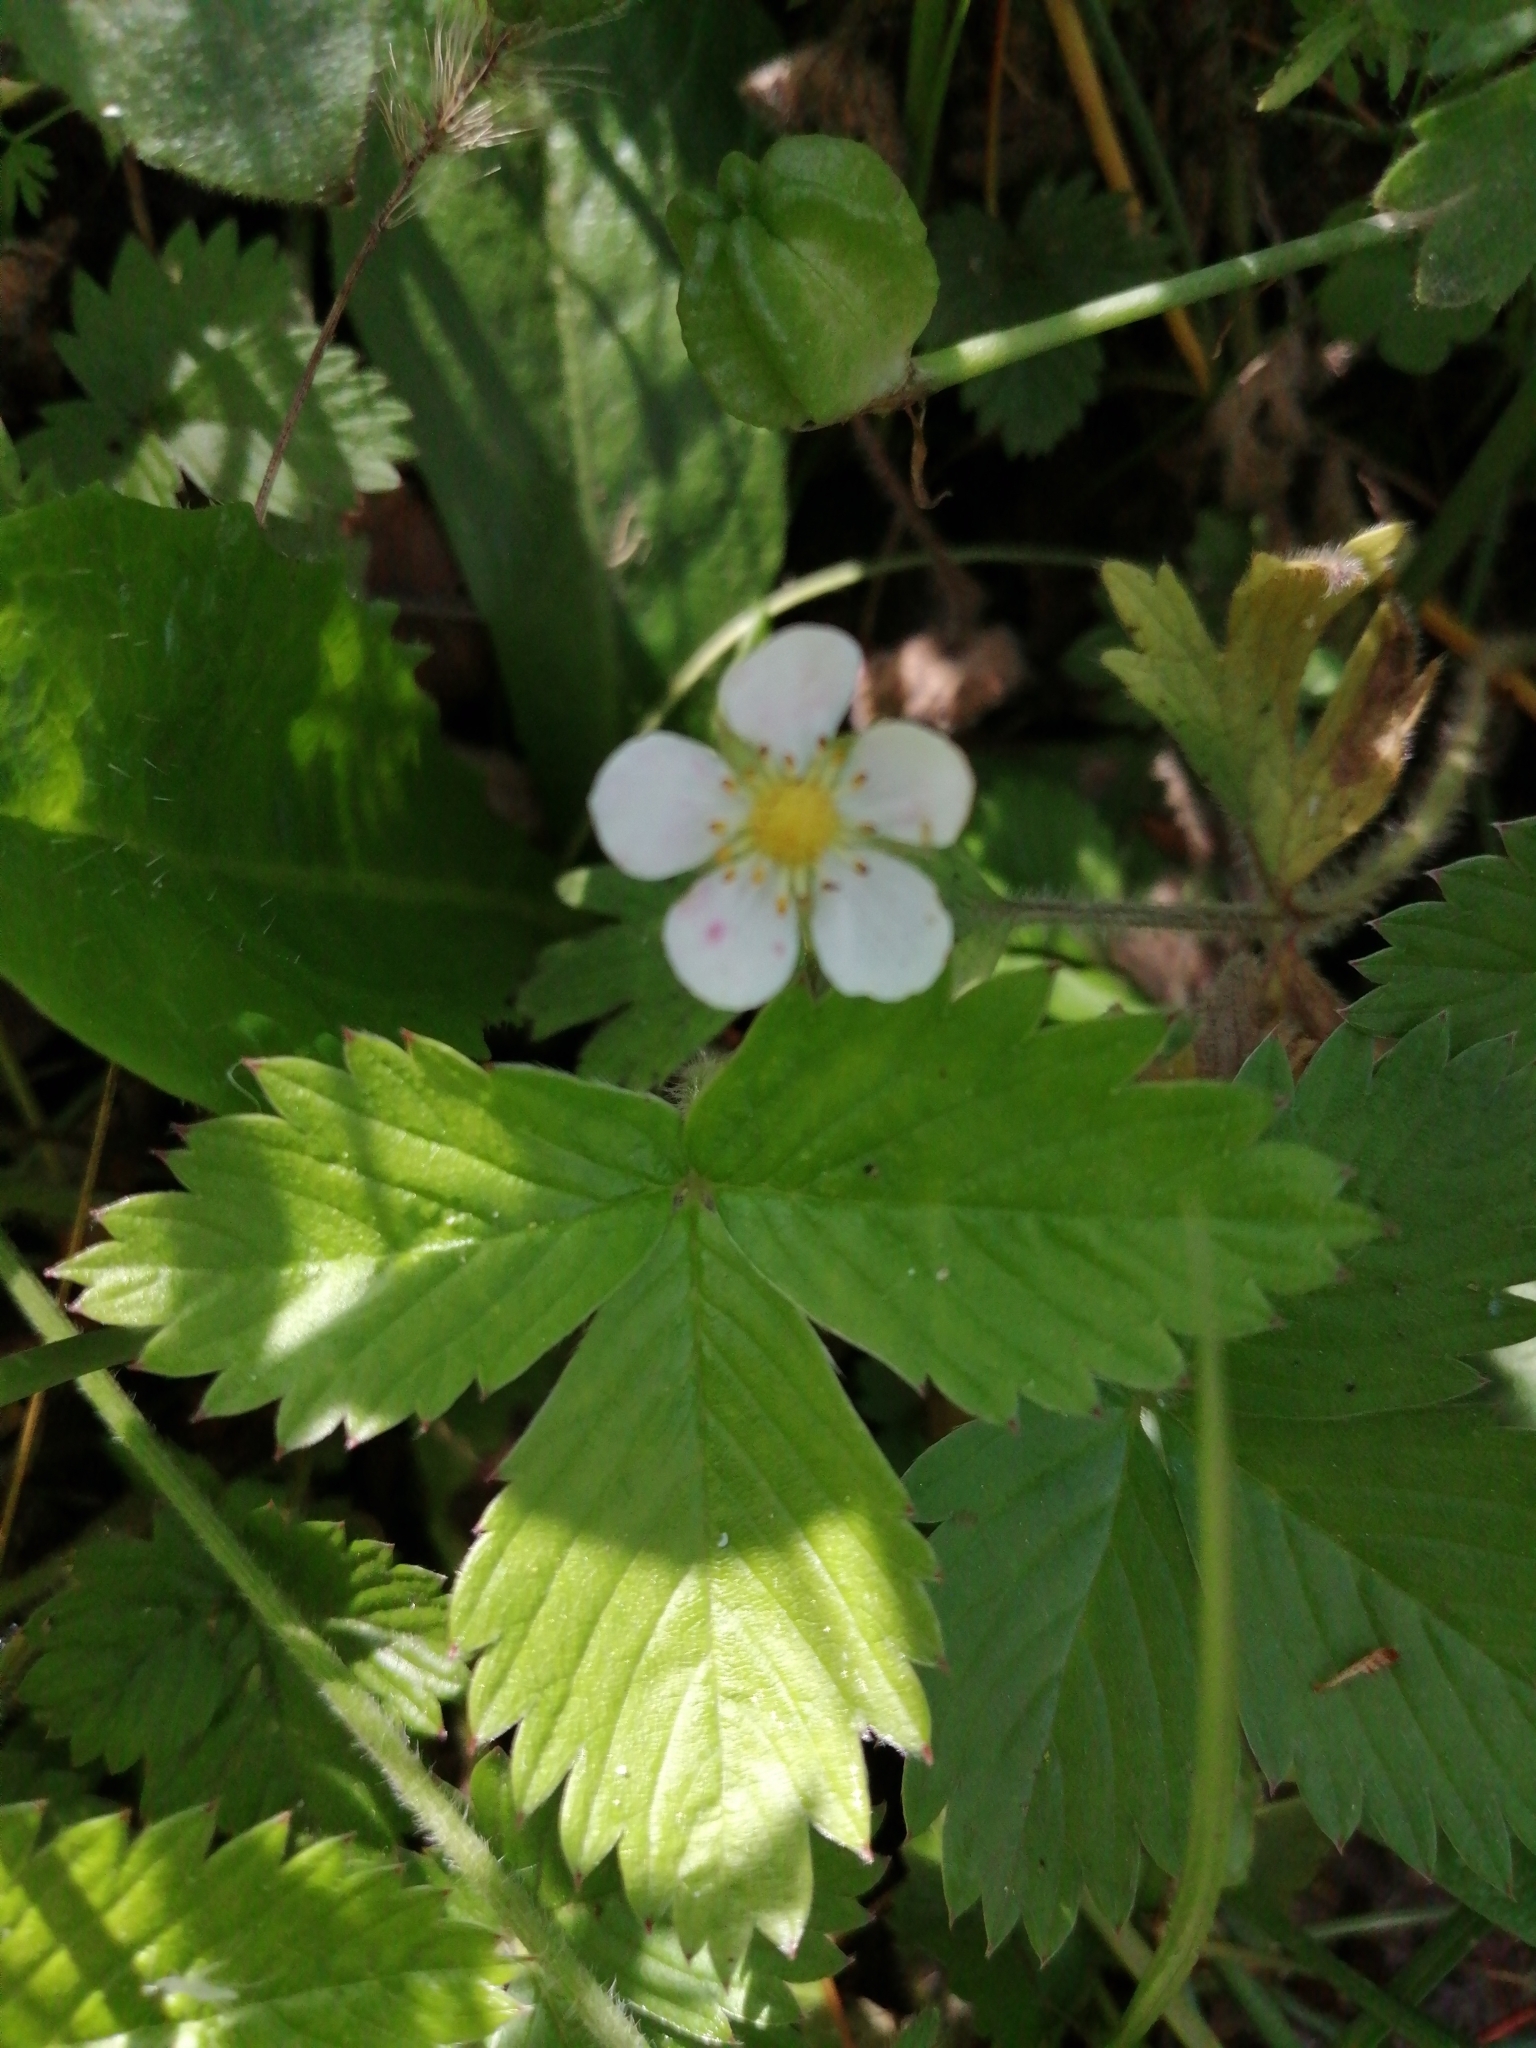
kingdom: Plantae
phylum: Tracheophyta
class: Magnoliopsida
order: Rosales
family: Rosaceae
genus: Fragaria
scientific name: Fragaria vesca
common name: Wild strawberry
